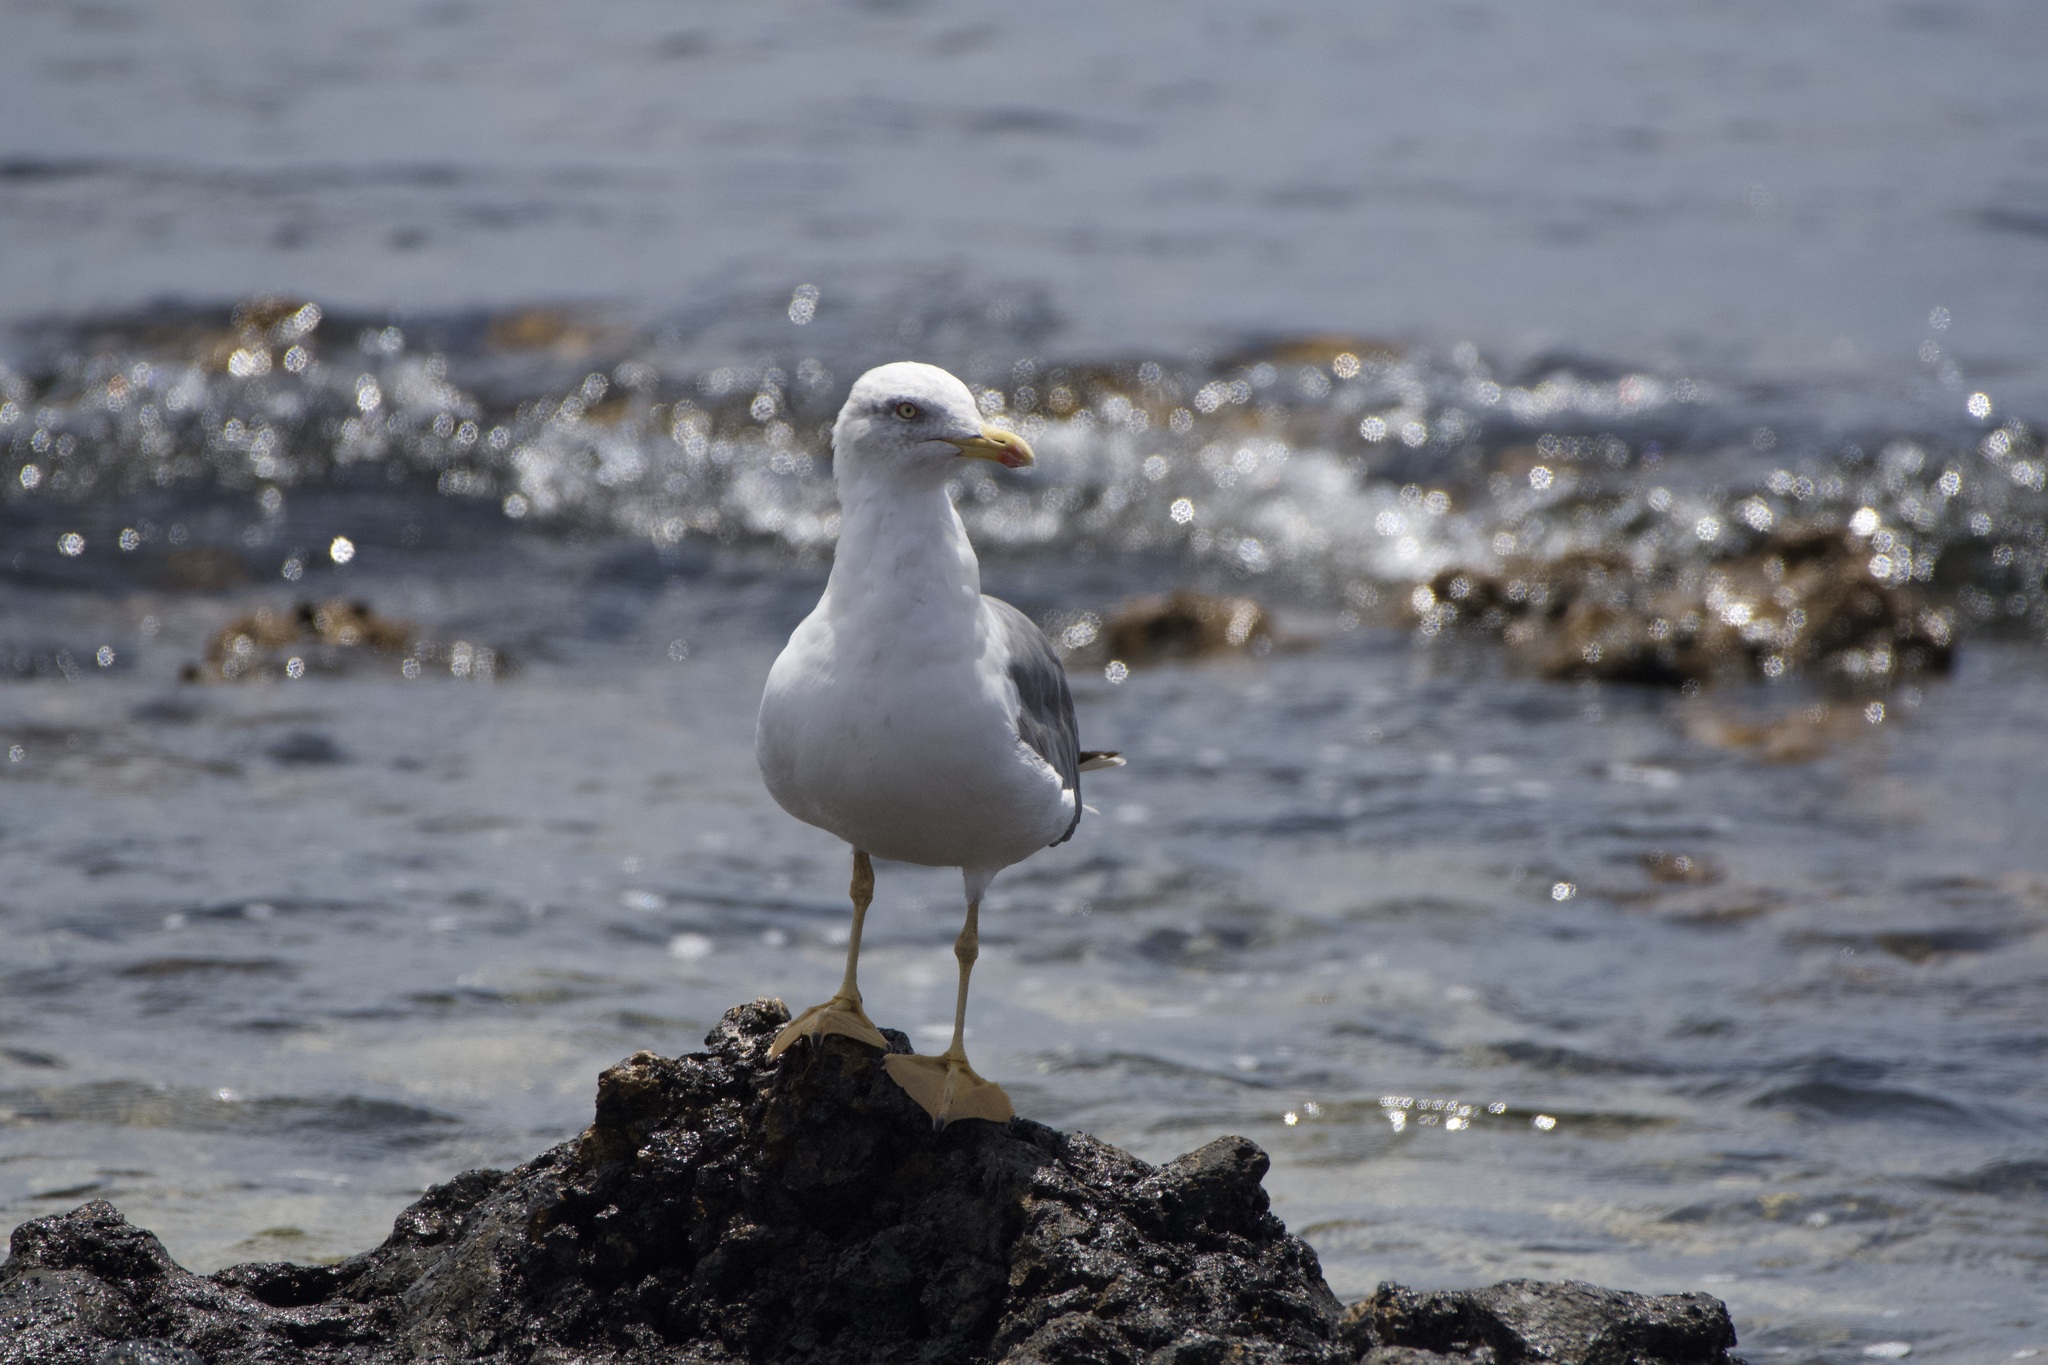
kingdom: Animalia
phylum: Chordata
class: Aves
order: Charadriiformes
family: Laridae
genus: Larus
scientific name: Larus michahellis
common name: Yellow-legged gull
